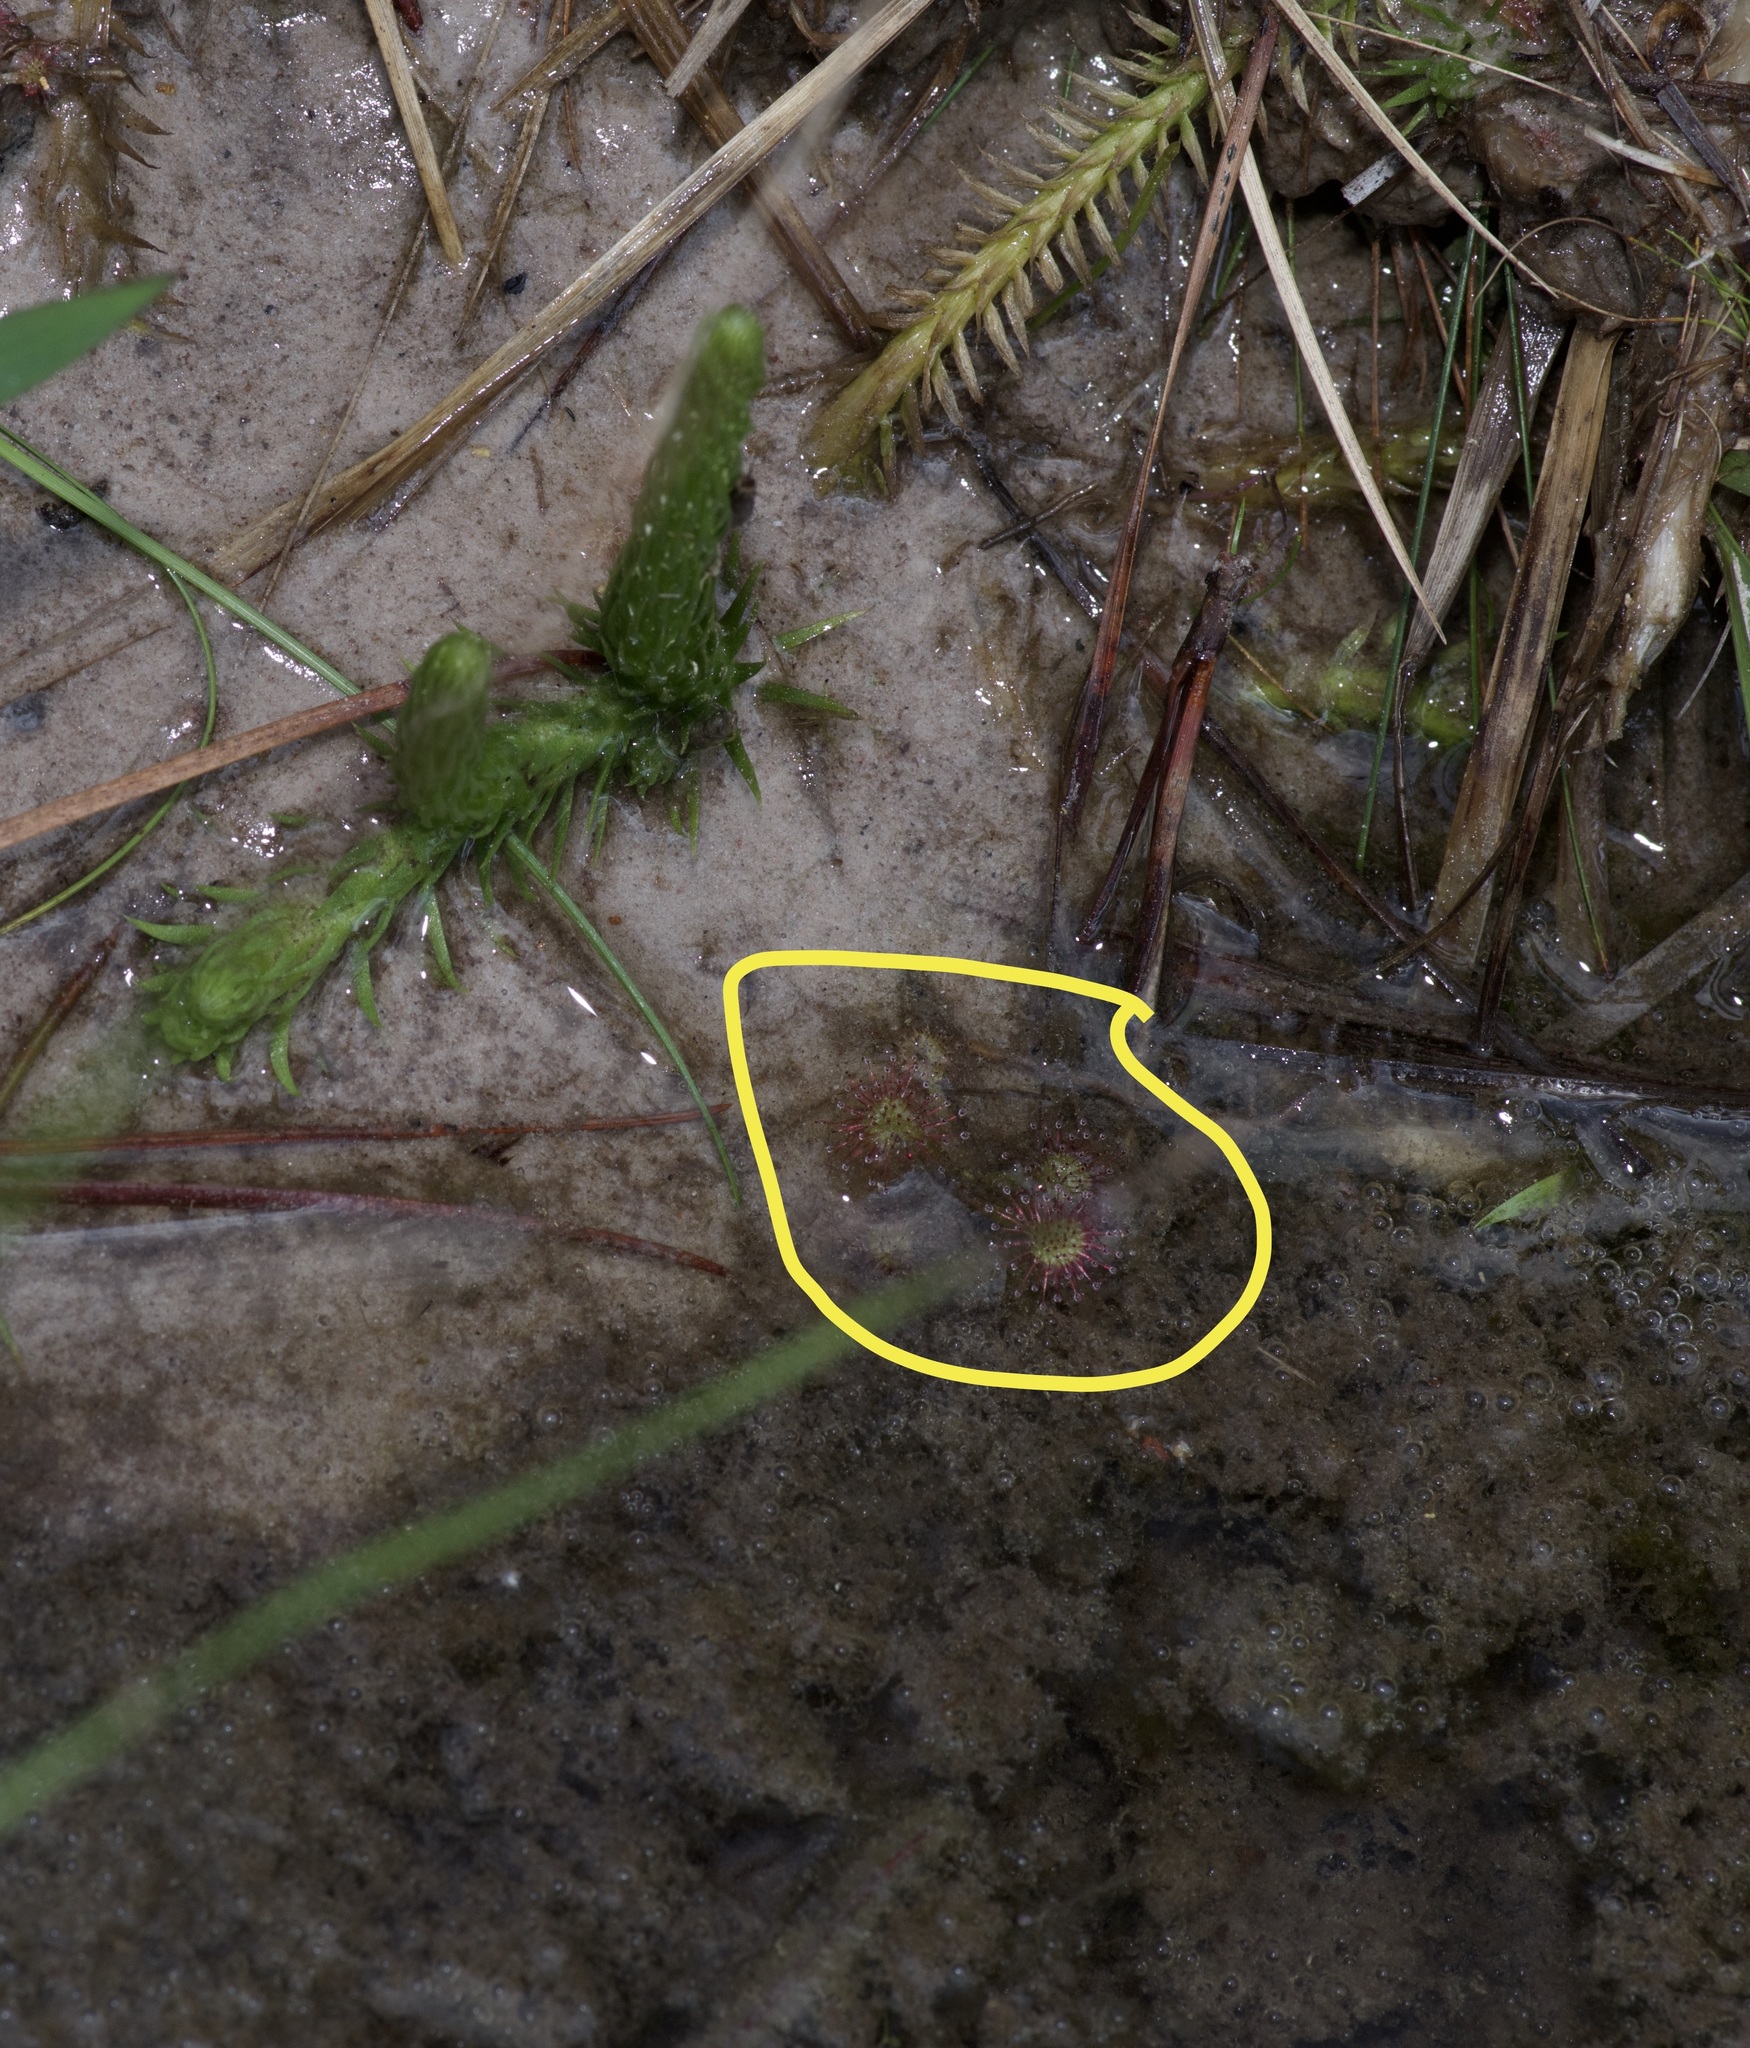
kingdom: Plantae
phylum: Tracheophyta
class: Magnoliopsida
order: Caryophyllales
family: Droseraceae
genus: Drosera
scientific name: Drosera brevifolia
